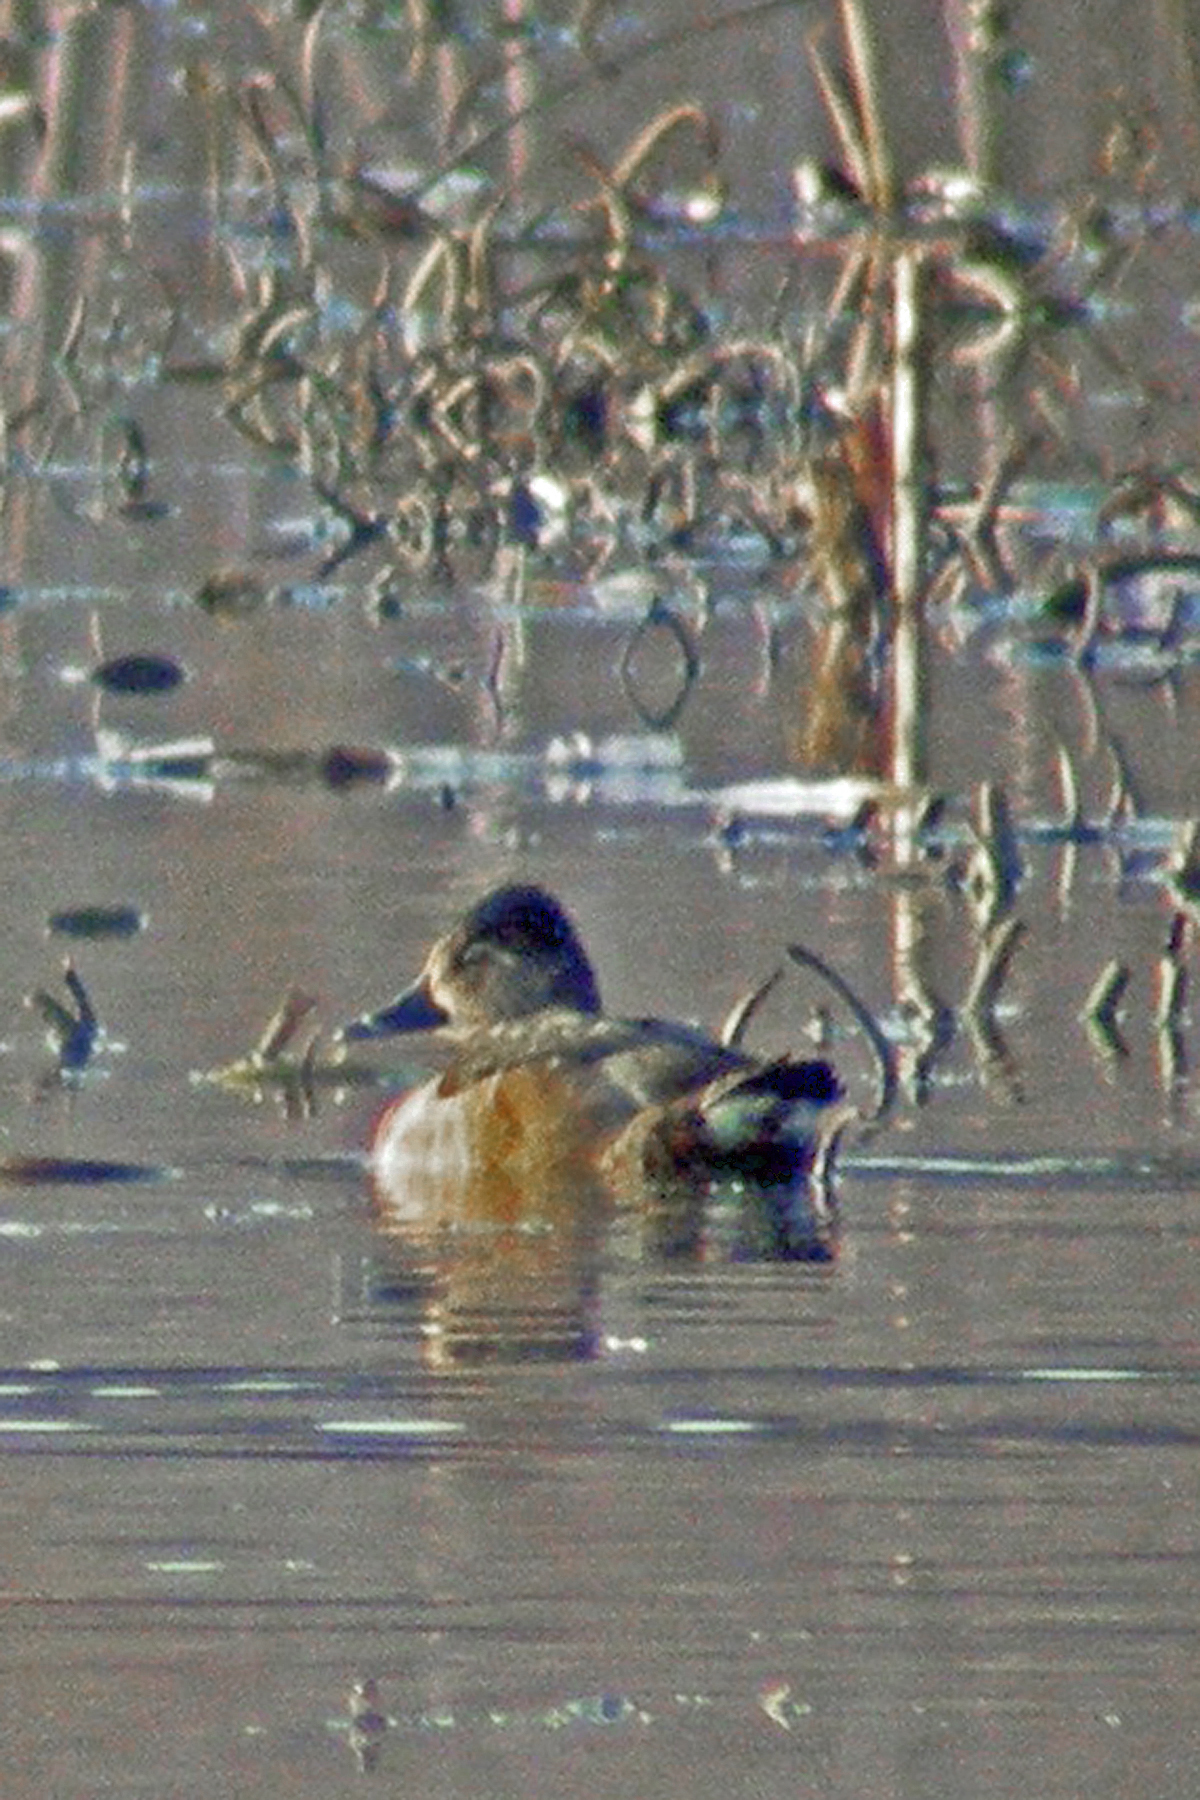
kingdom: Animalia
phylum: Chordata
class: Aves
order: Anseriformes
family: Anatidae
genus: Aythya
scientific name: Aythya collaris
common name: Ring-necked duck
